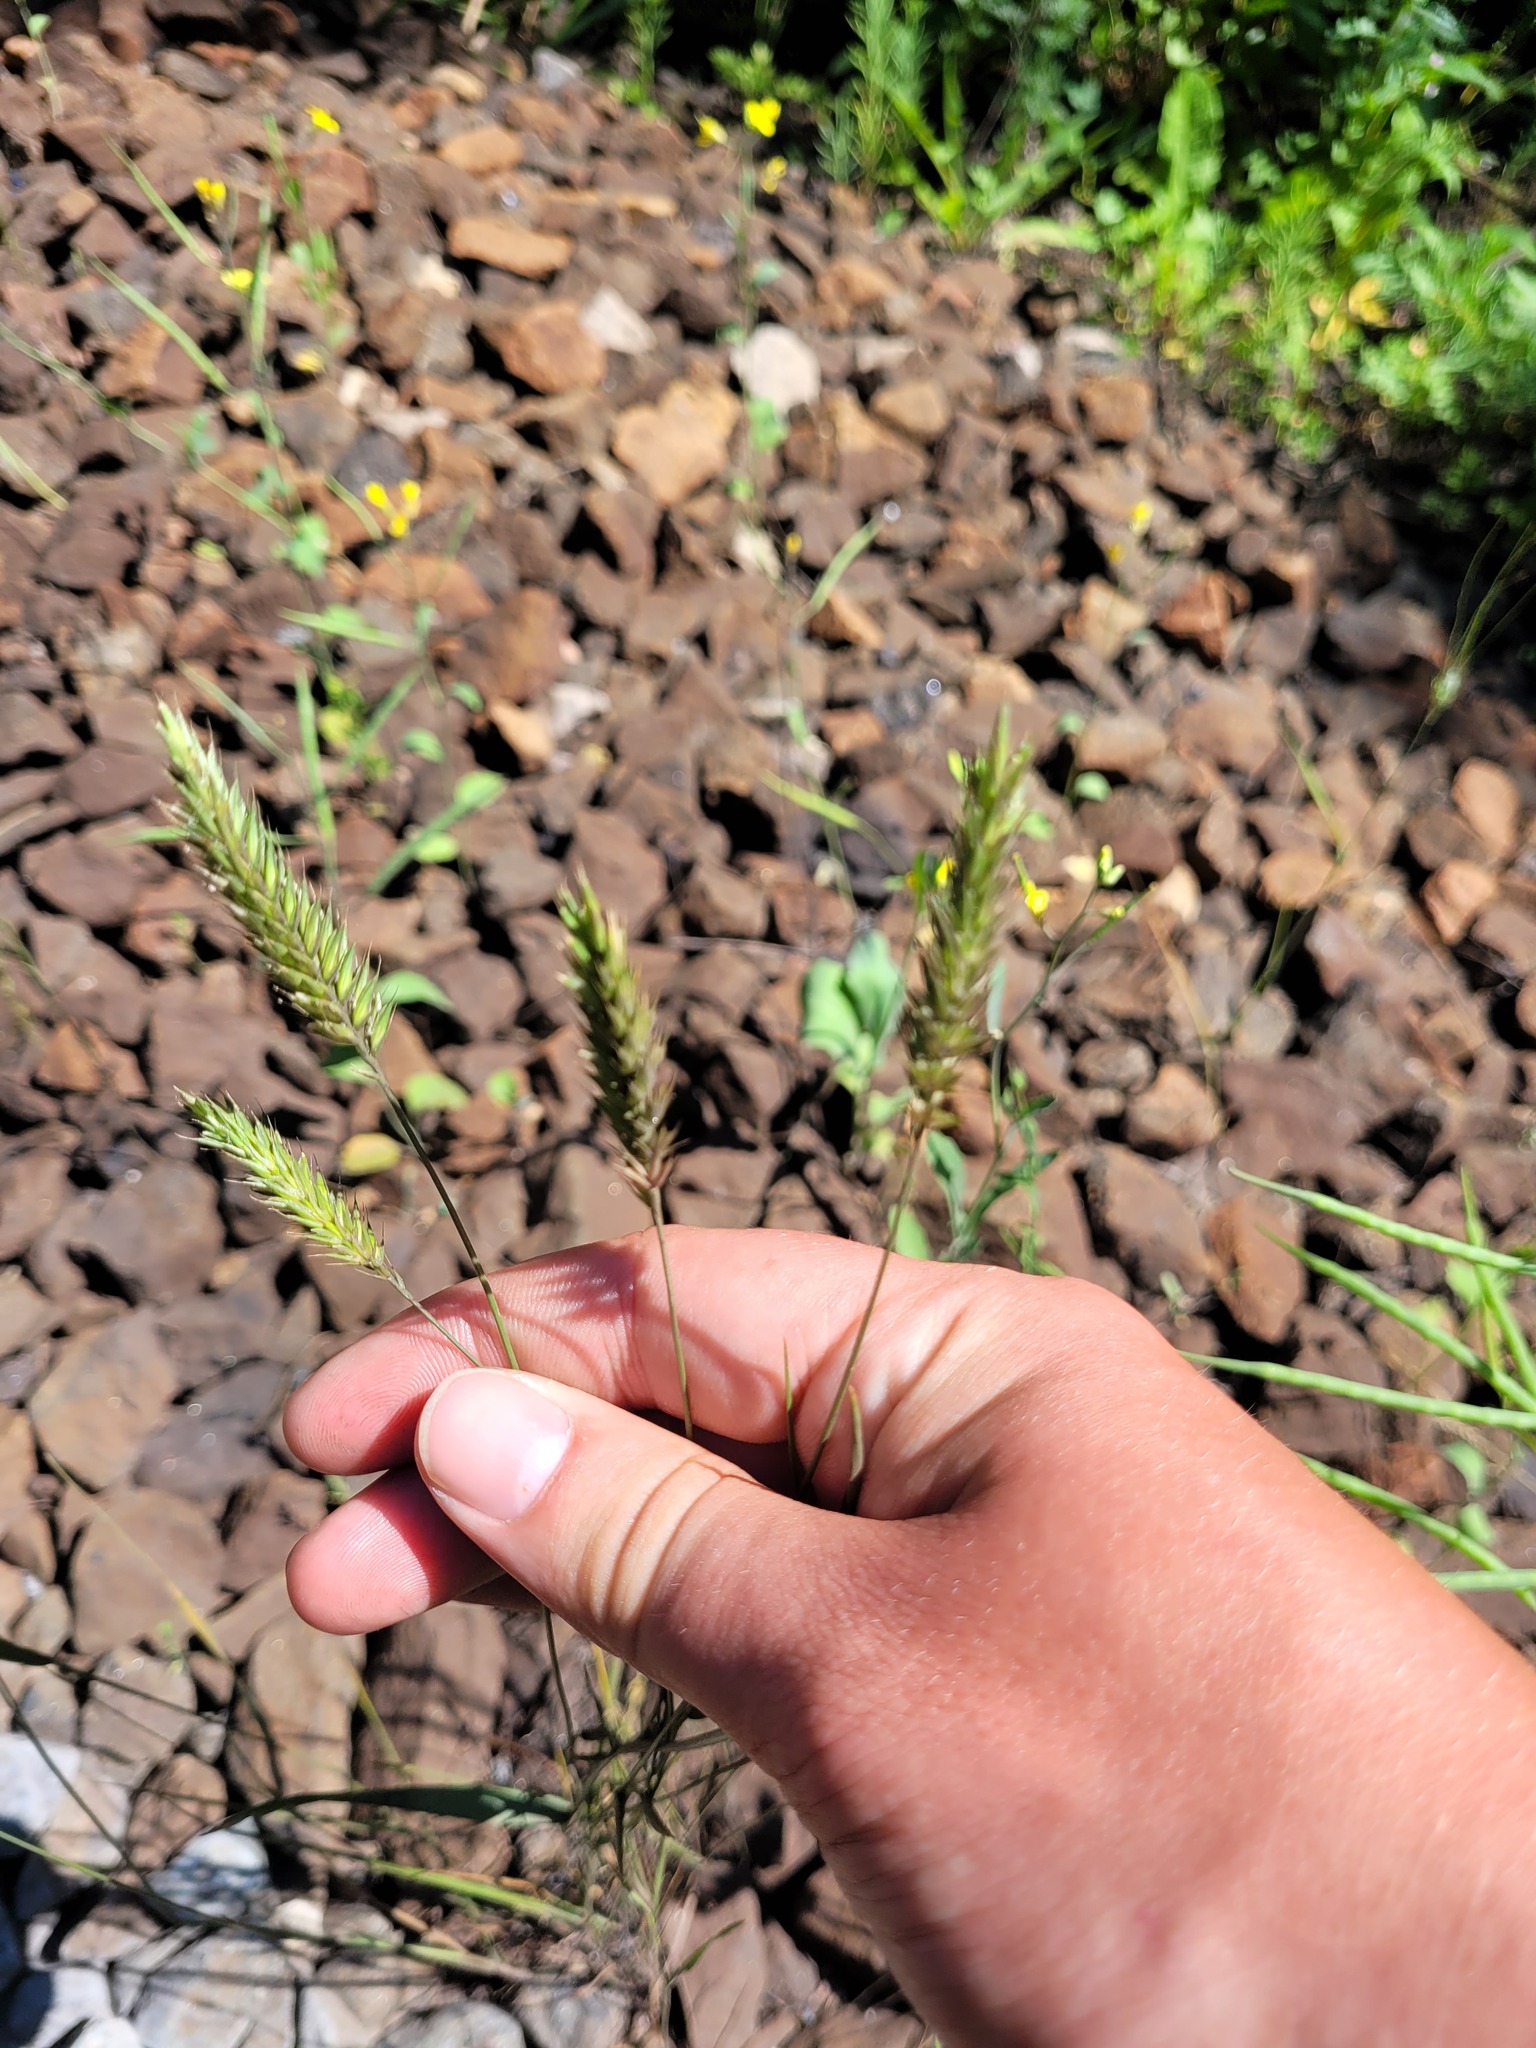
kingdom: Plantae
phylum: Tracheophyta
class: Liliopsida
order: Poales
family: Poaceae
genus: Agropyron
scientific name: Agropyron cristatum
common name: Crested wheatgrass
